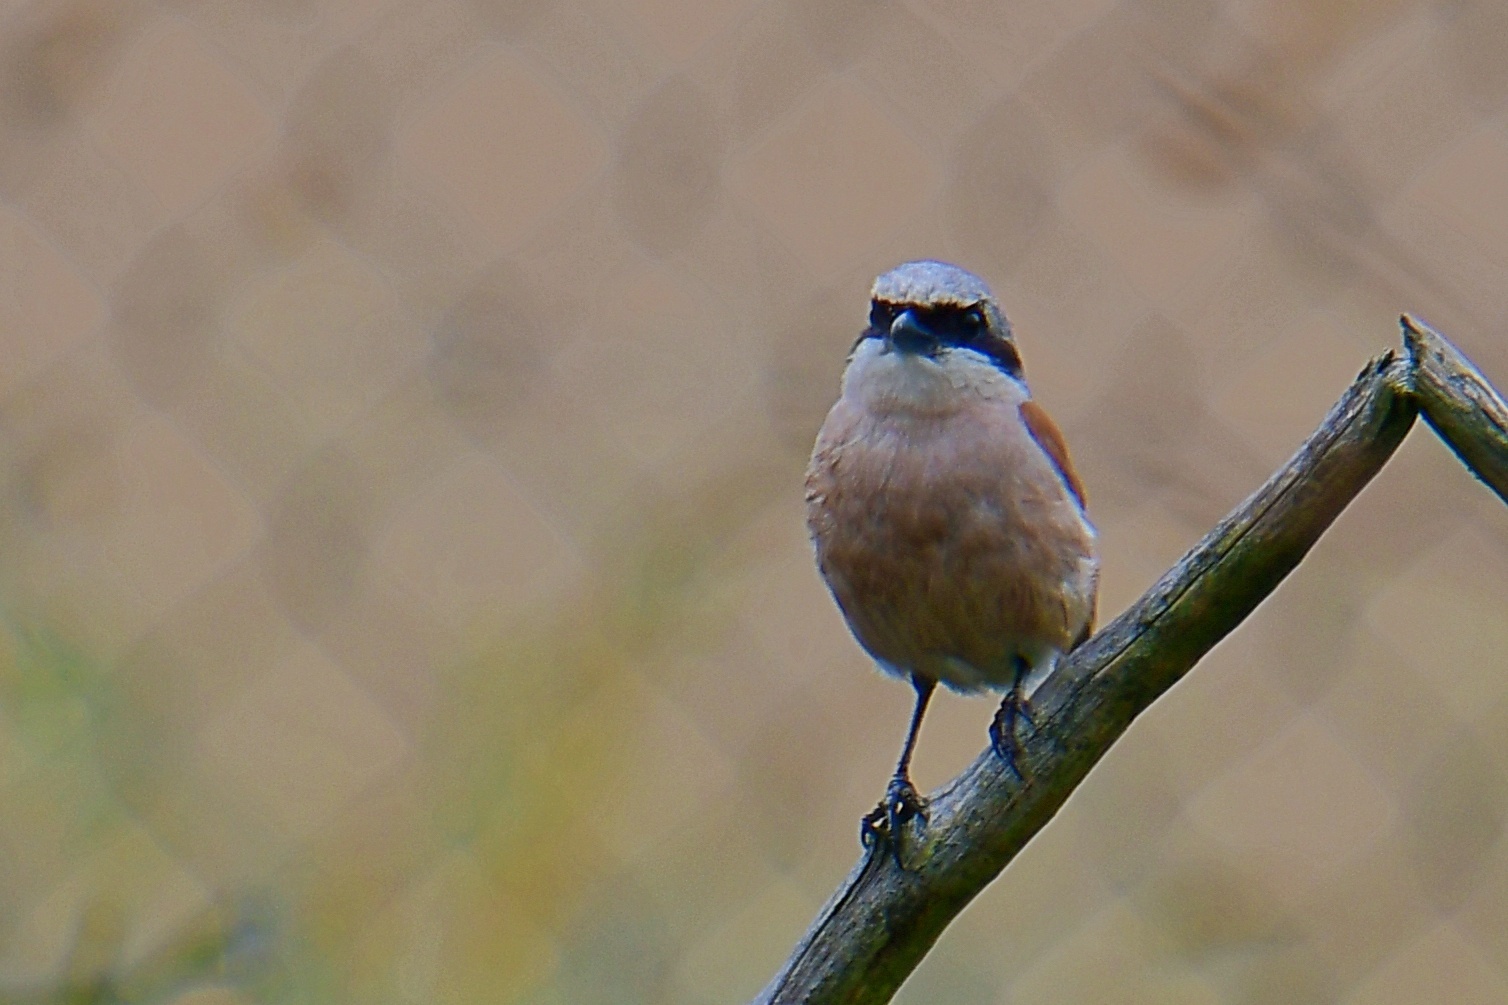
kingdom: Animalia
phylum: Chordata
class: Aves
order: Passeriformes
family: Laniidae
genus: Lanius
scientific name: Lanius collurio
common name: Red-backed shrike
